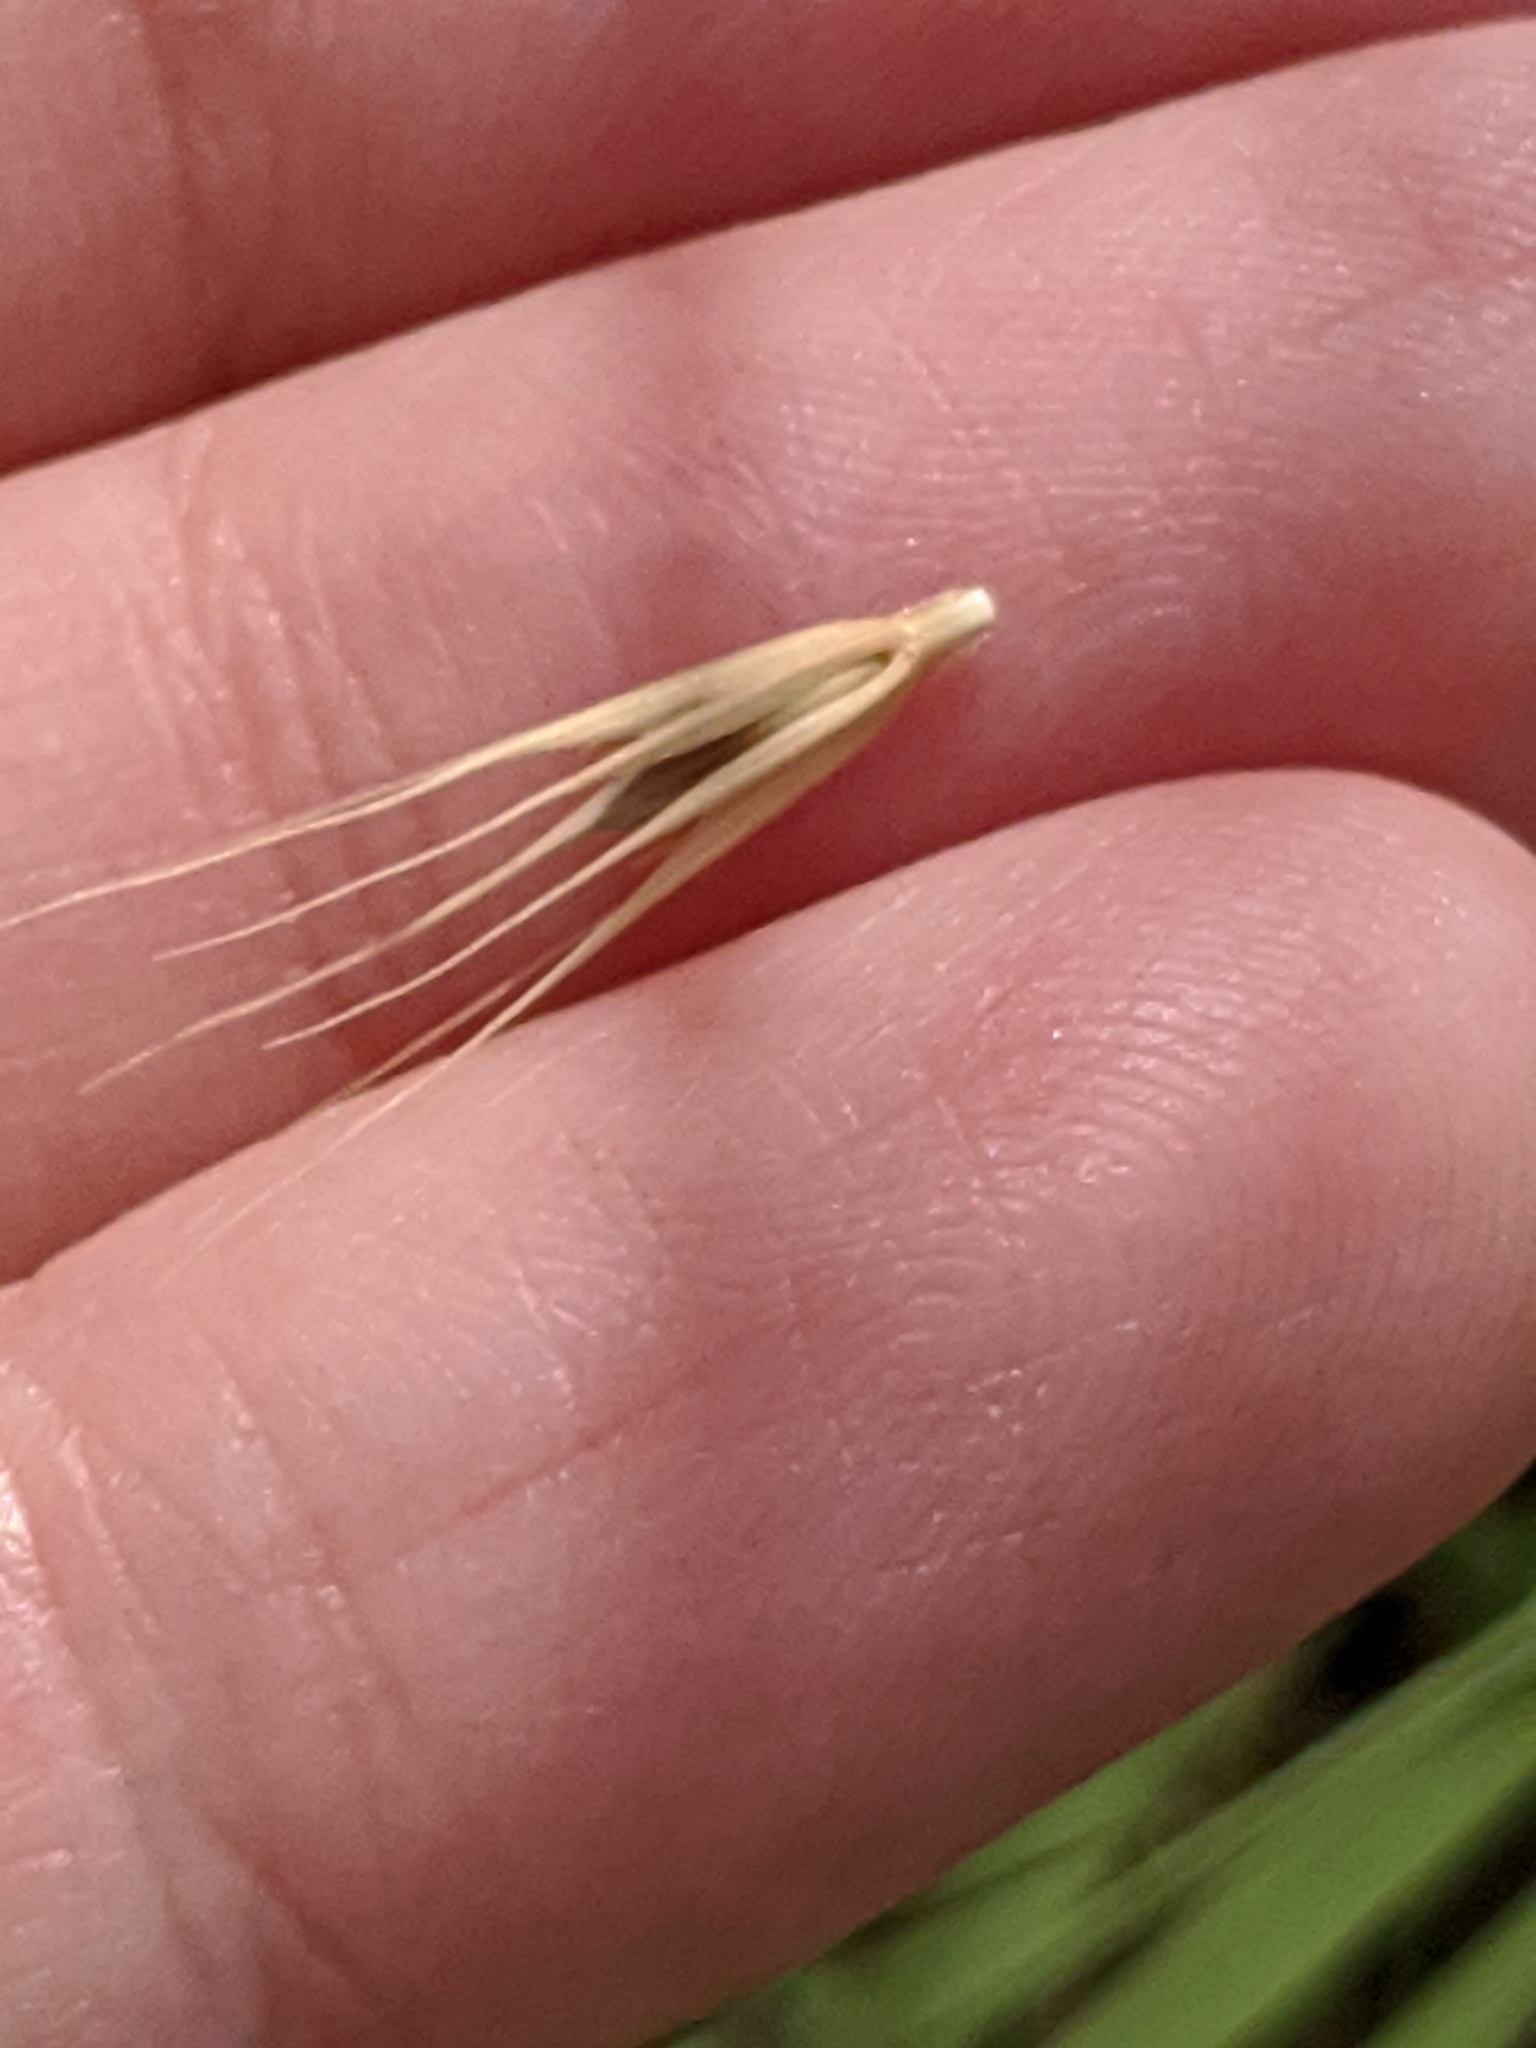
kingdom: Plantae
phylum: Tracheophyta
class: Liliopsida
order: Poales
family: Poaceae
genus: Hordeum
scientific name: Hordeum pusillum
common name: Little barley
